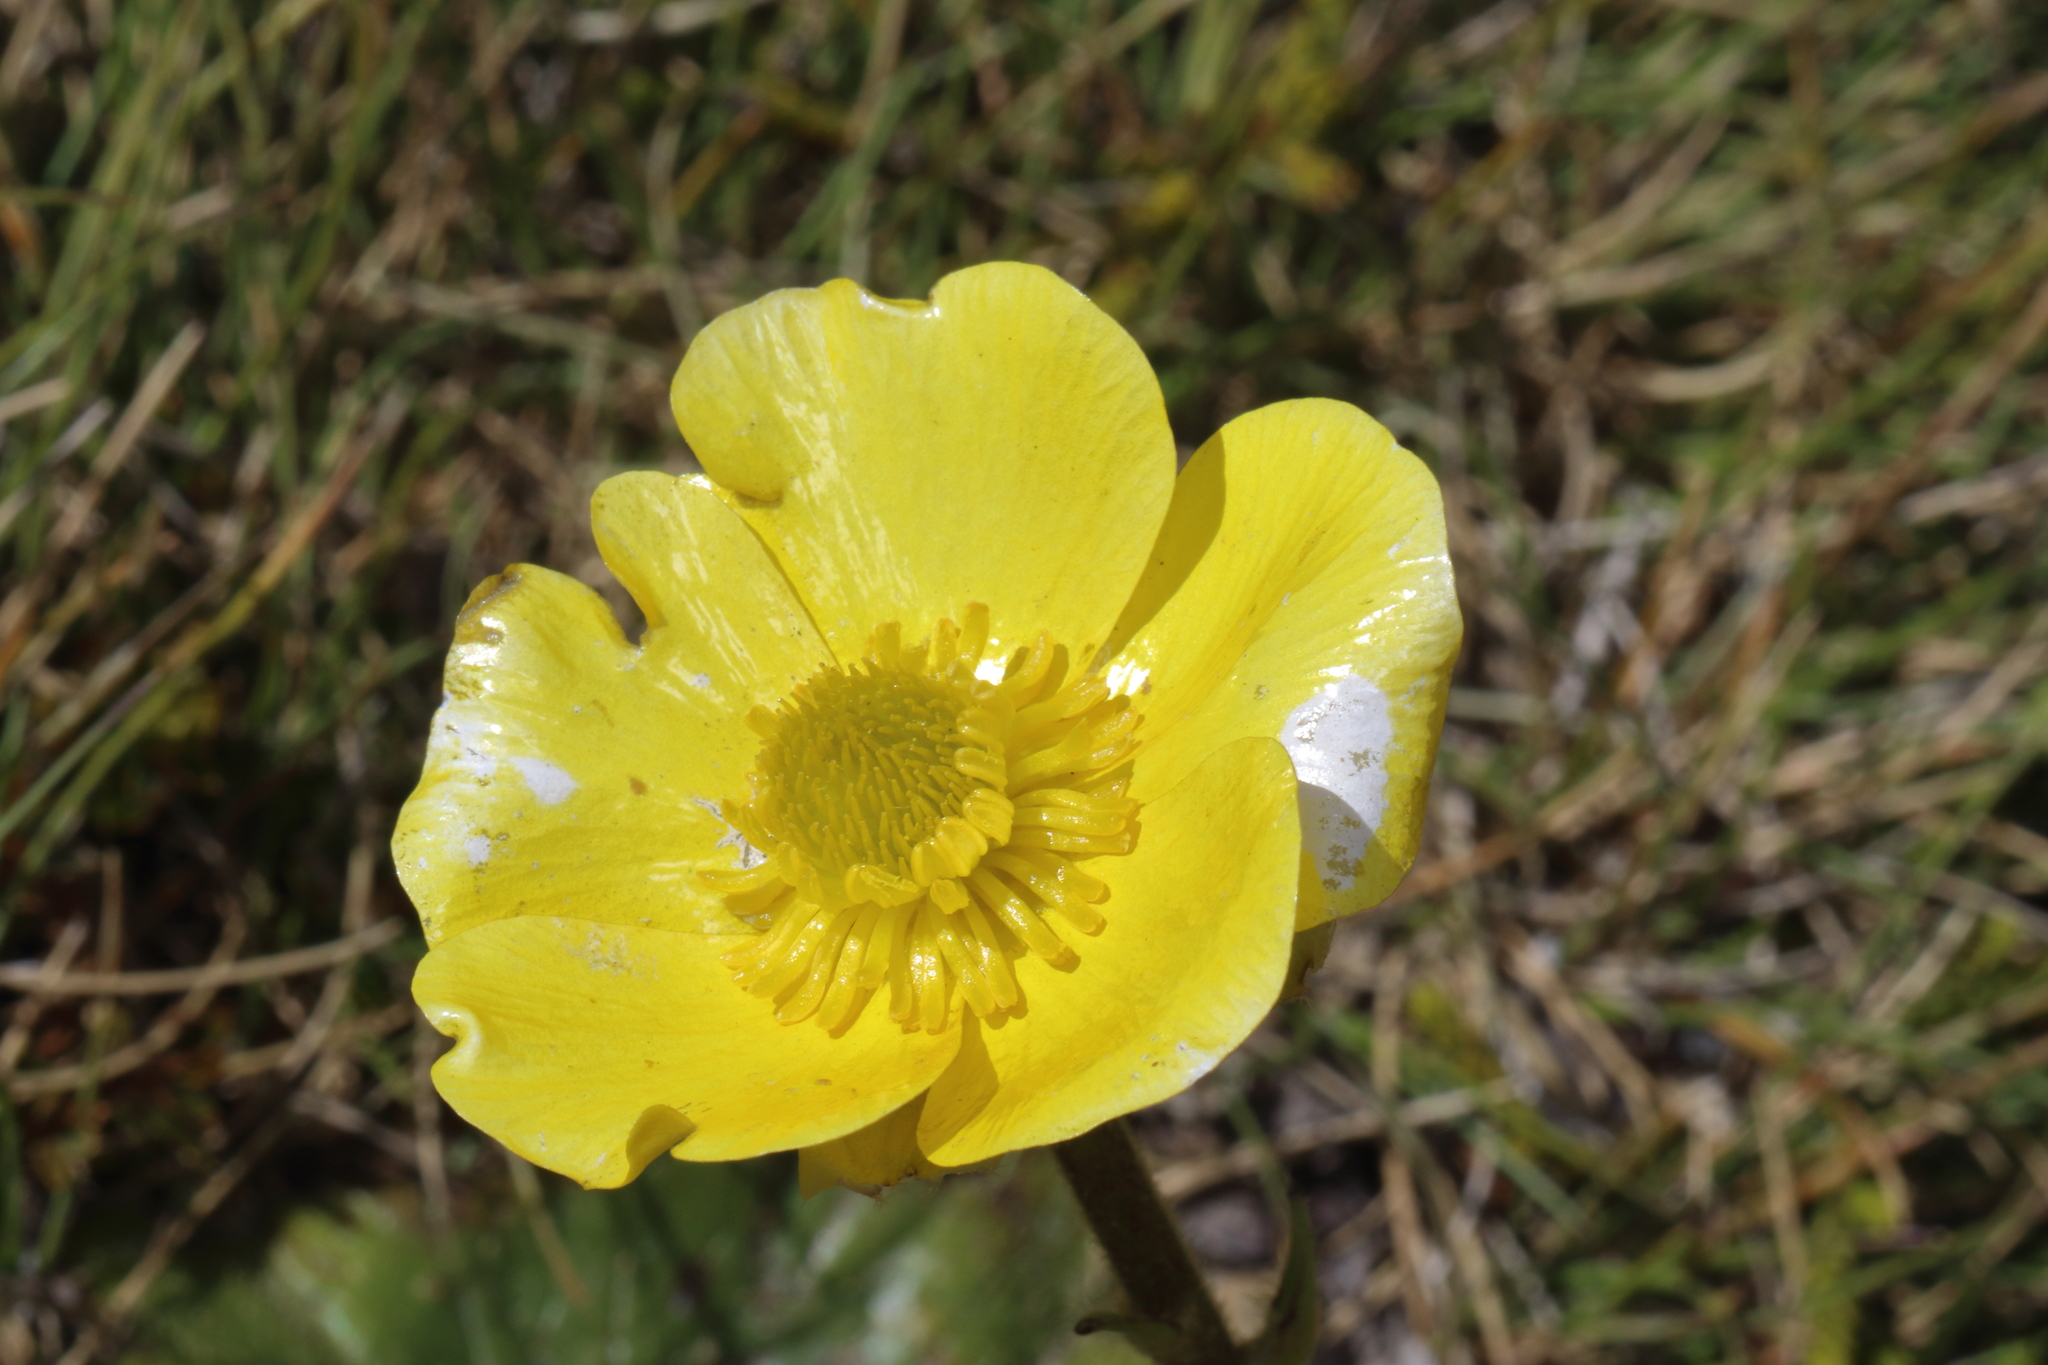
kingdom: Plantae
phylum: Tracheophyta
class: Magnoliopsida
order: Ranunculales
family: Ranunculaceae
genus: Ranunculus
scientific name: Ranunculus insignis
